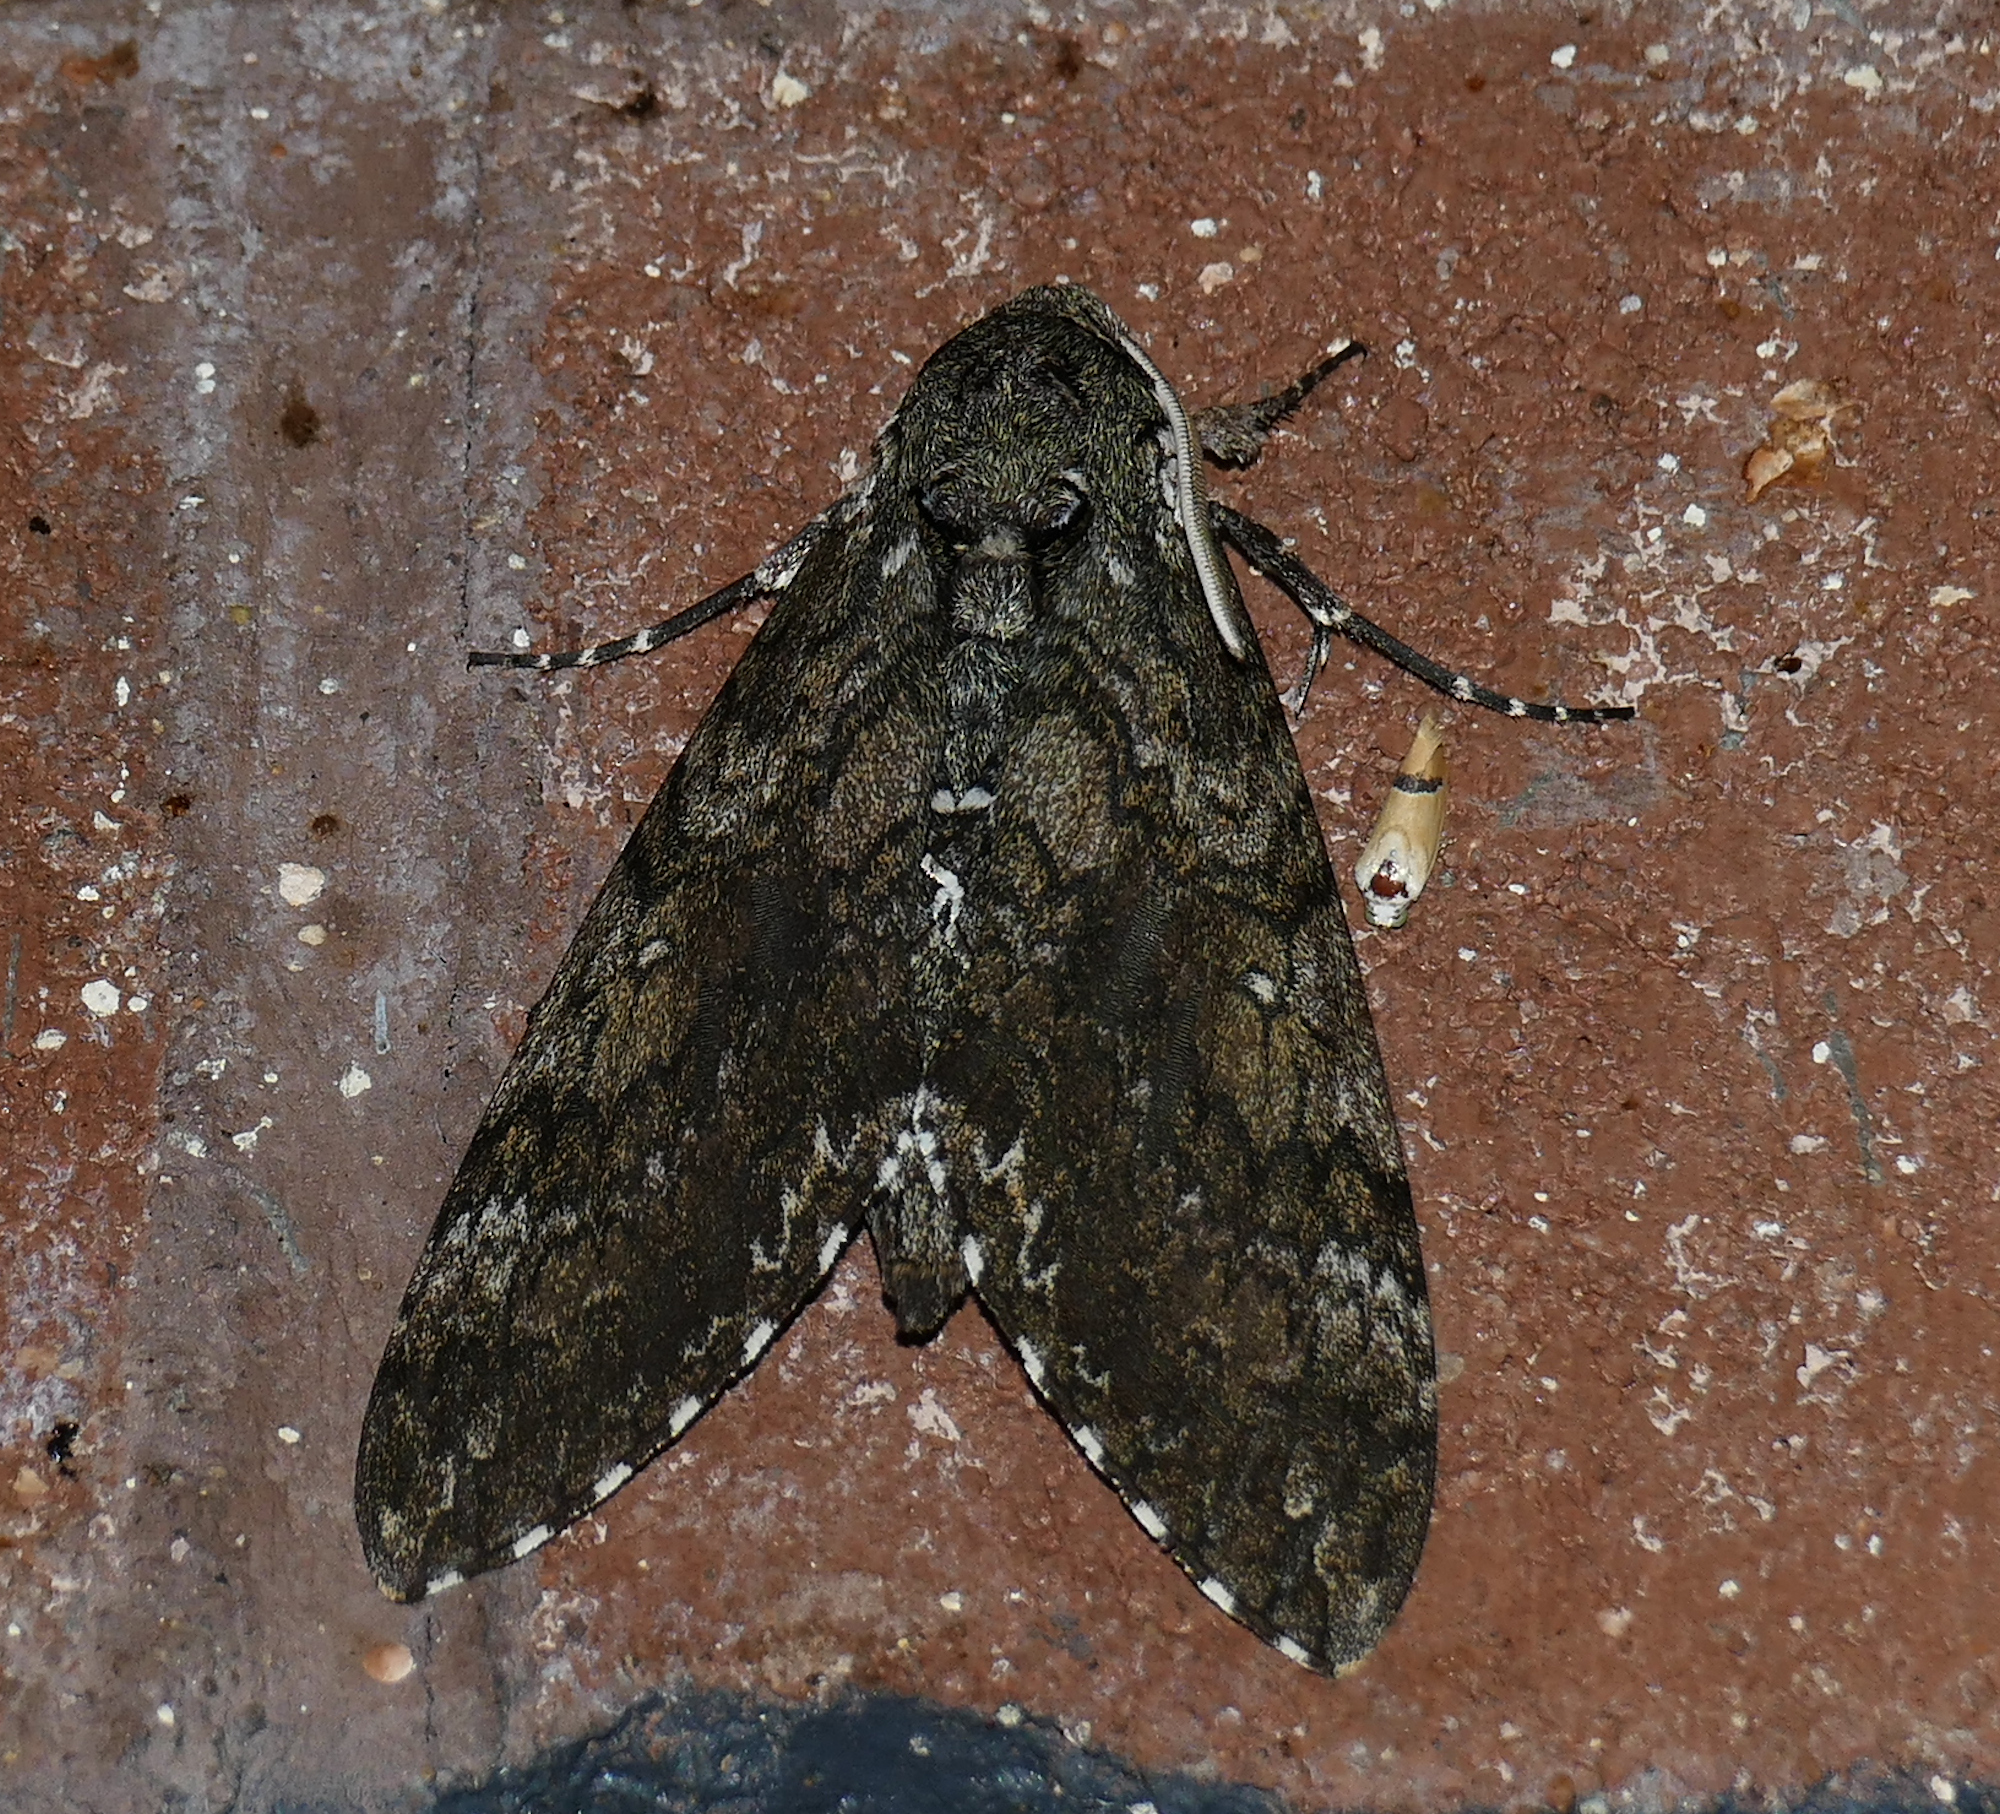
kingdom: Animalia
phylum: Arthropoda
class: Insecta
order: Lepidoptera
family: Sphingidae
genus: Manduca
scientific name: Manduca sexta
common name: Carolina sphinx
